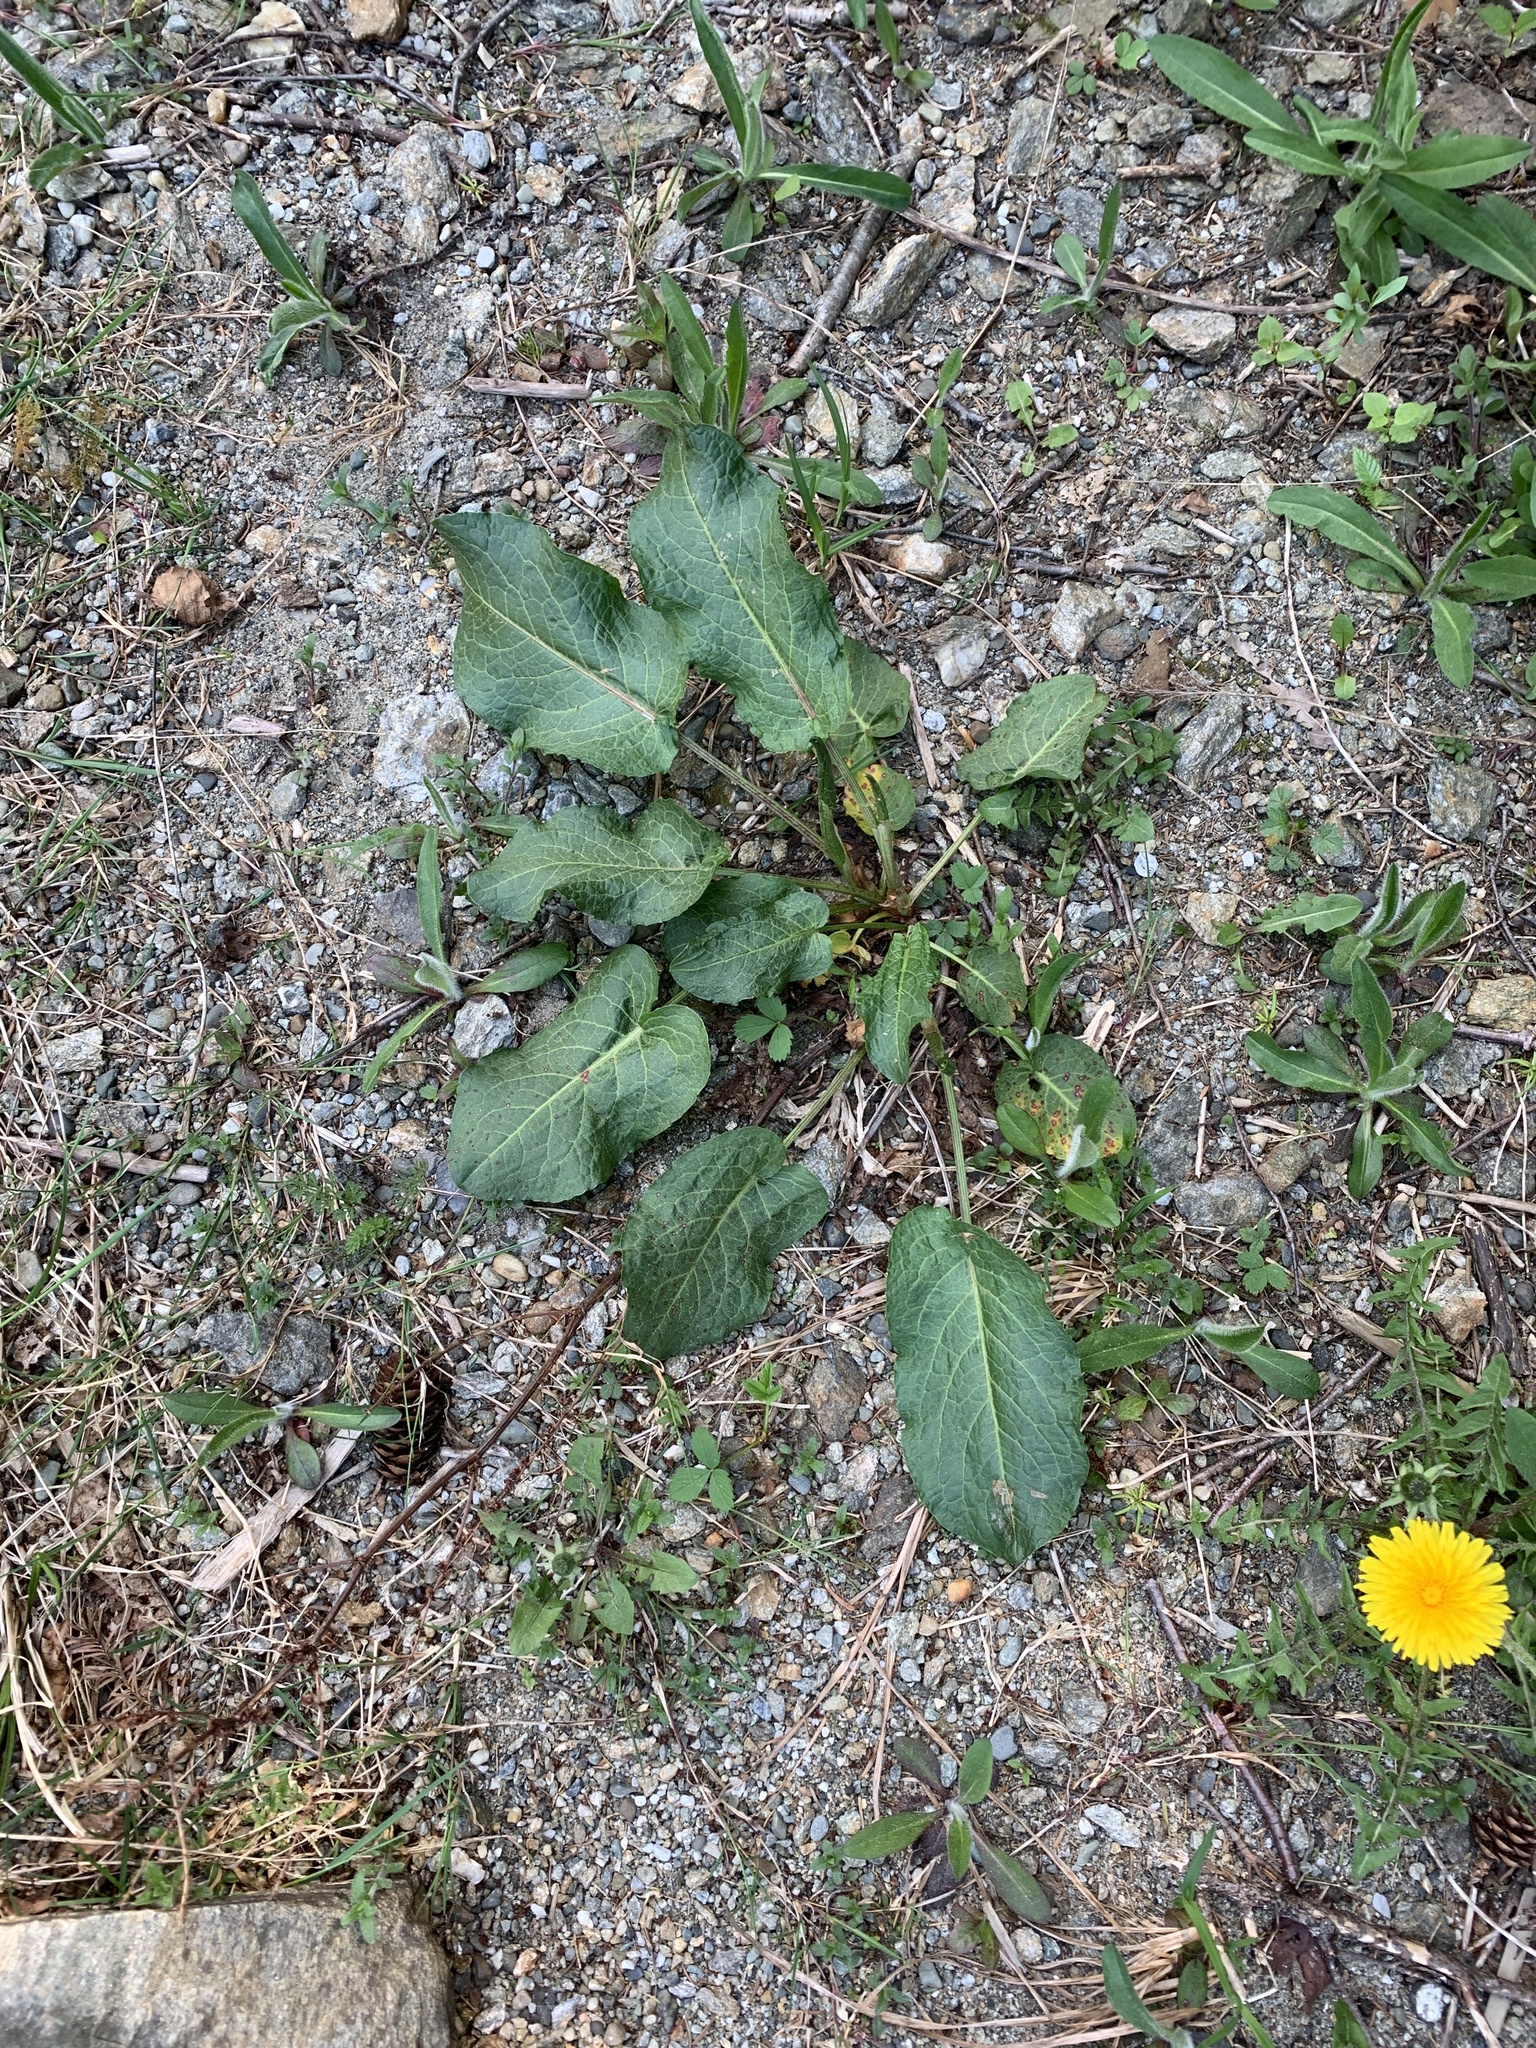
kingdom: Plantae
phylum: Tracheophyta
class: Magnoliopsida
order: Caryophyllales
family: Polygonaceae
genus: Rumex
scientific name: Rumex obtusifolius
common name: Bitter dock
